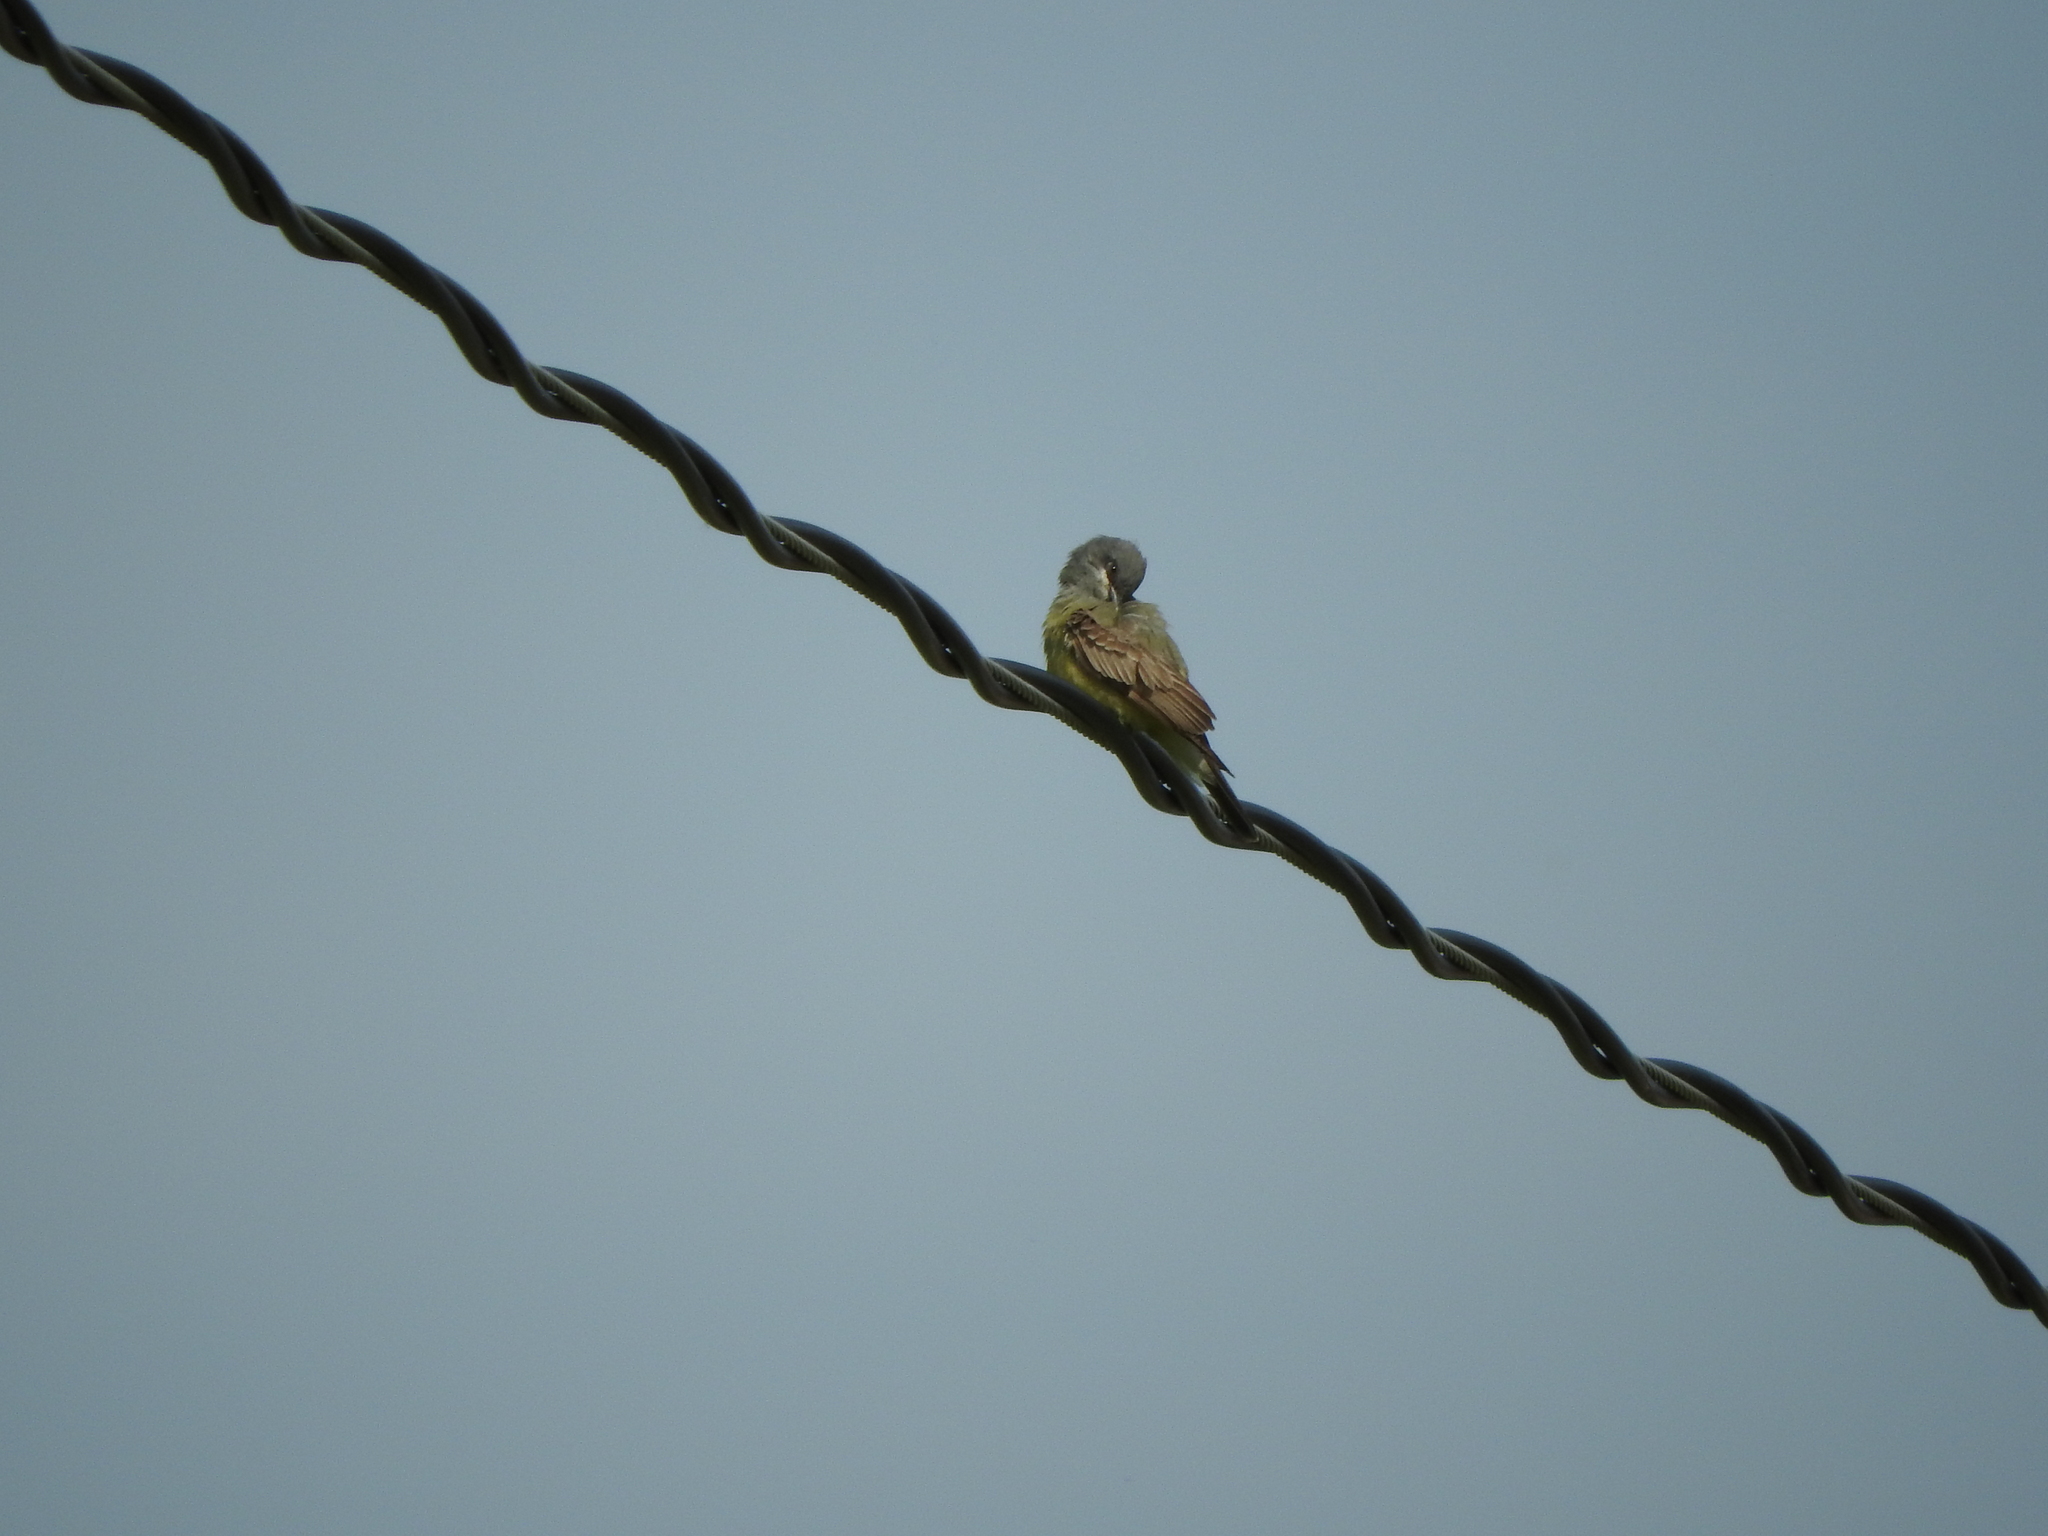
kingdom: Animalia
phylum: Chordata
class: Aves
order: Passeriformes
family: Tyrannidae
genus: Tyrannus
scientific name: Tyrannus vociferans
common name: Cassin's kingbird
